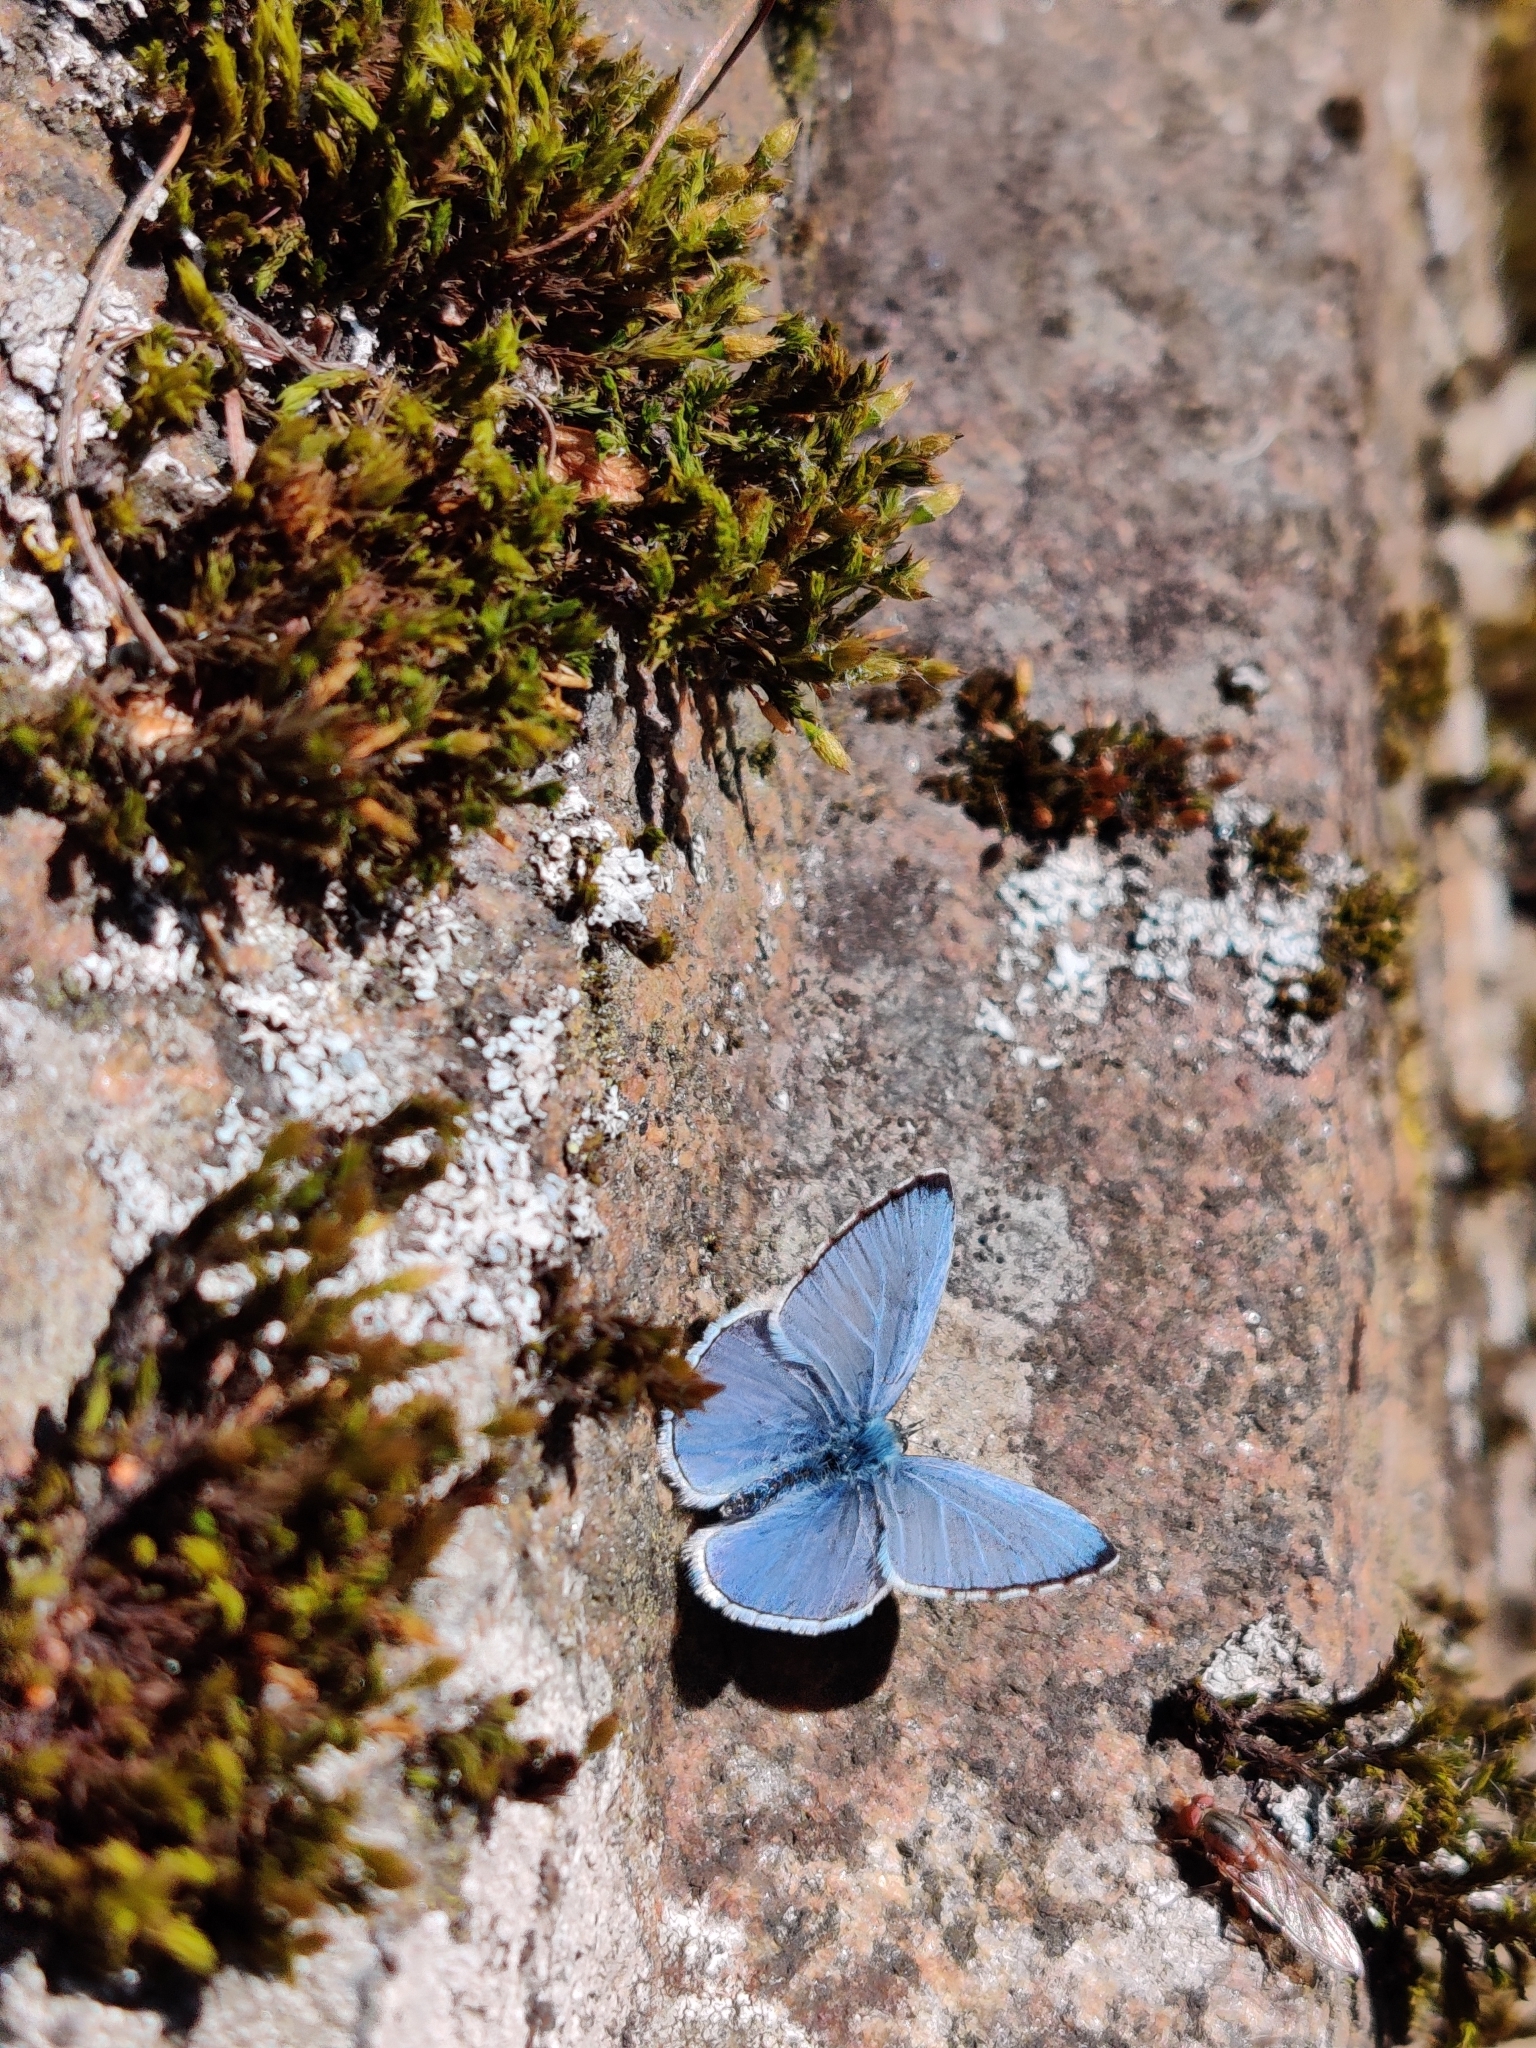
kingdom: Animalia
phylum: Arthropoda
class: Insecta
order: Lepidoptera
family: Lycaenidae
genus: Celastrina
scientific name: Celastrina argiolus
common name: Holly blue
